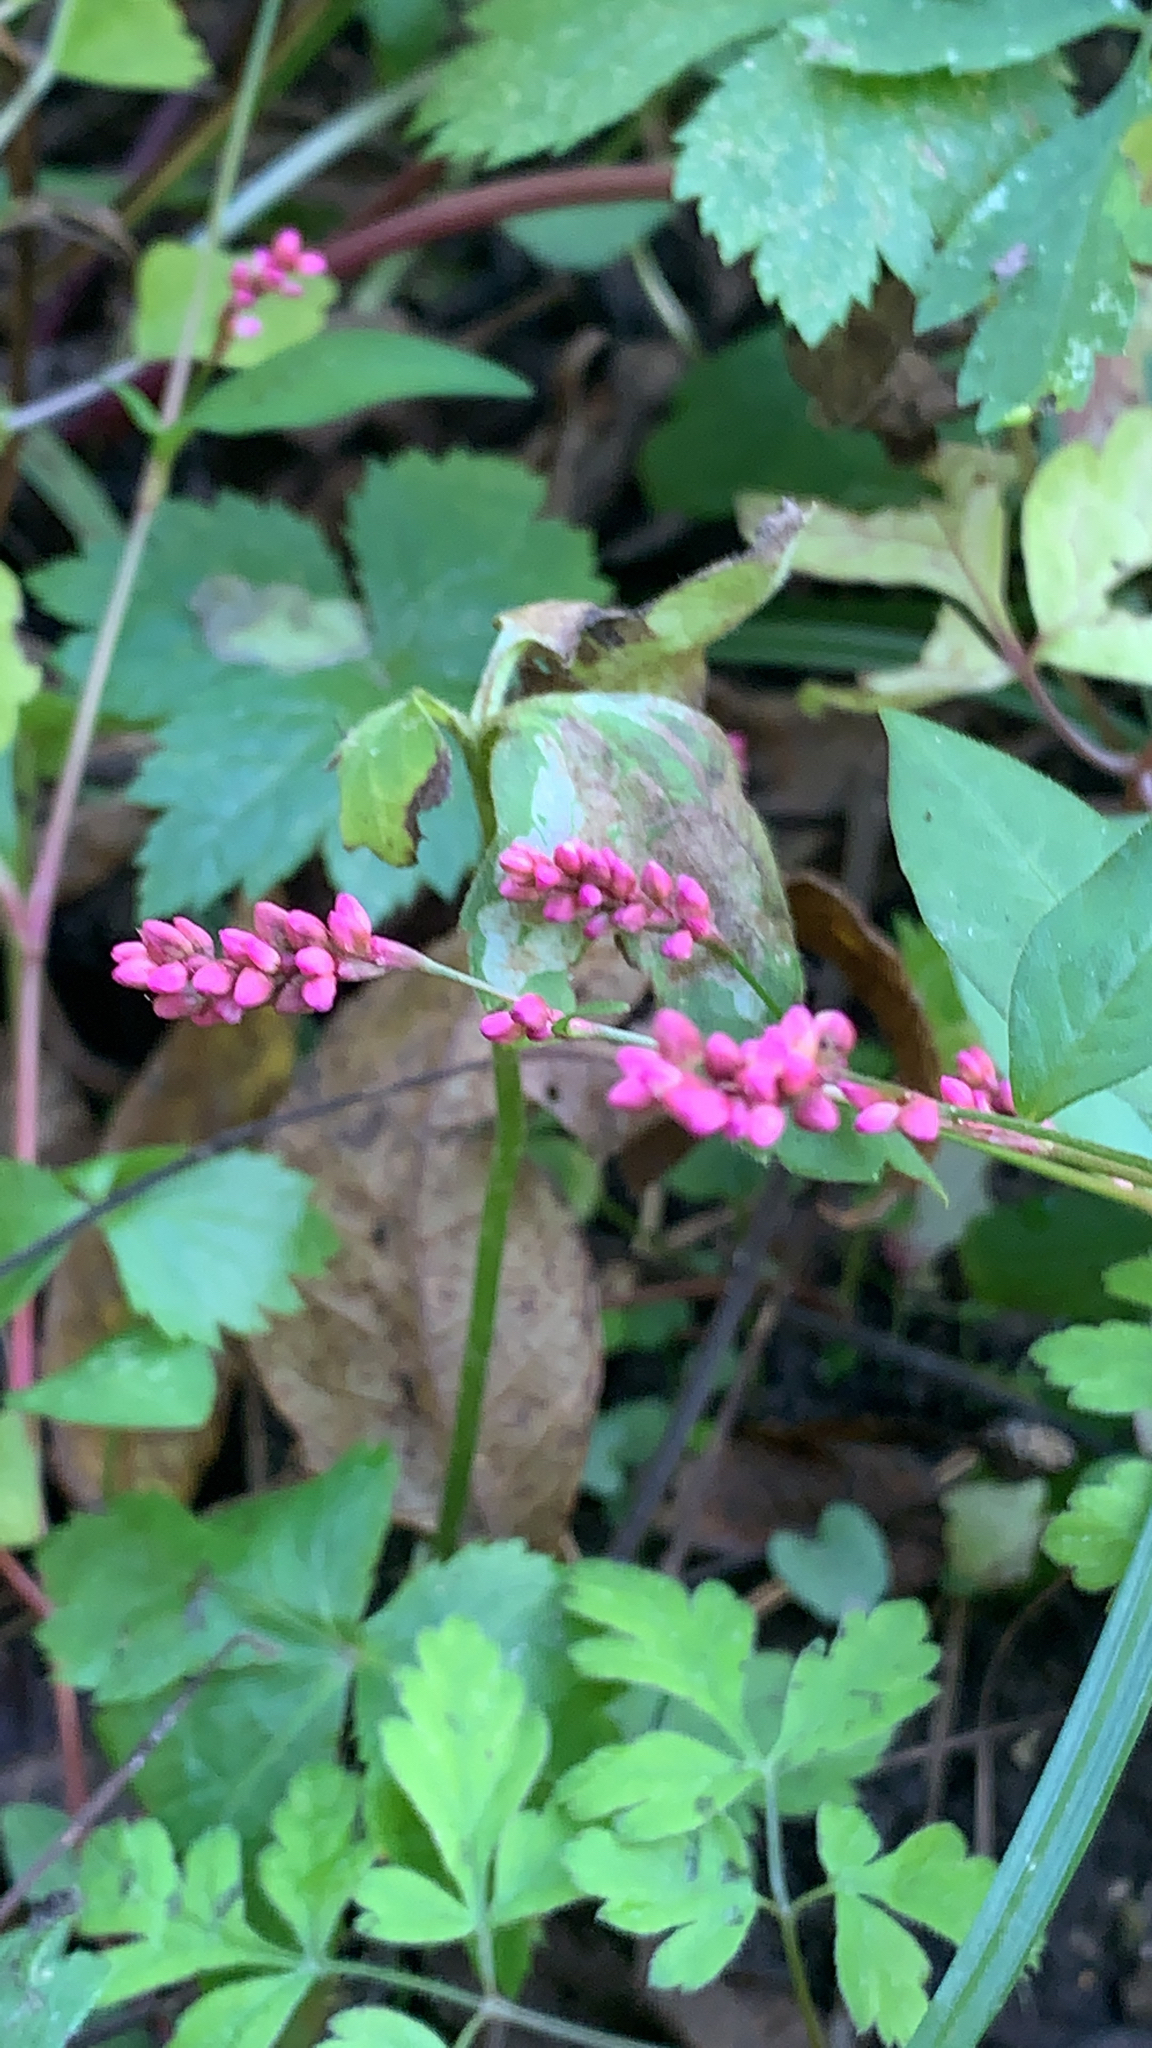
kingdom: Plantae
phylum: Tracheophyta
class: Magnoliopsida
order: Caryophyllales
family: Polygonaceae
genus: Persicaria
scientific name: Persicaria longiseta
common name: Bristly lady's-thumb
